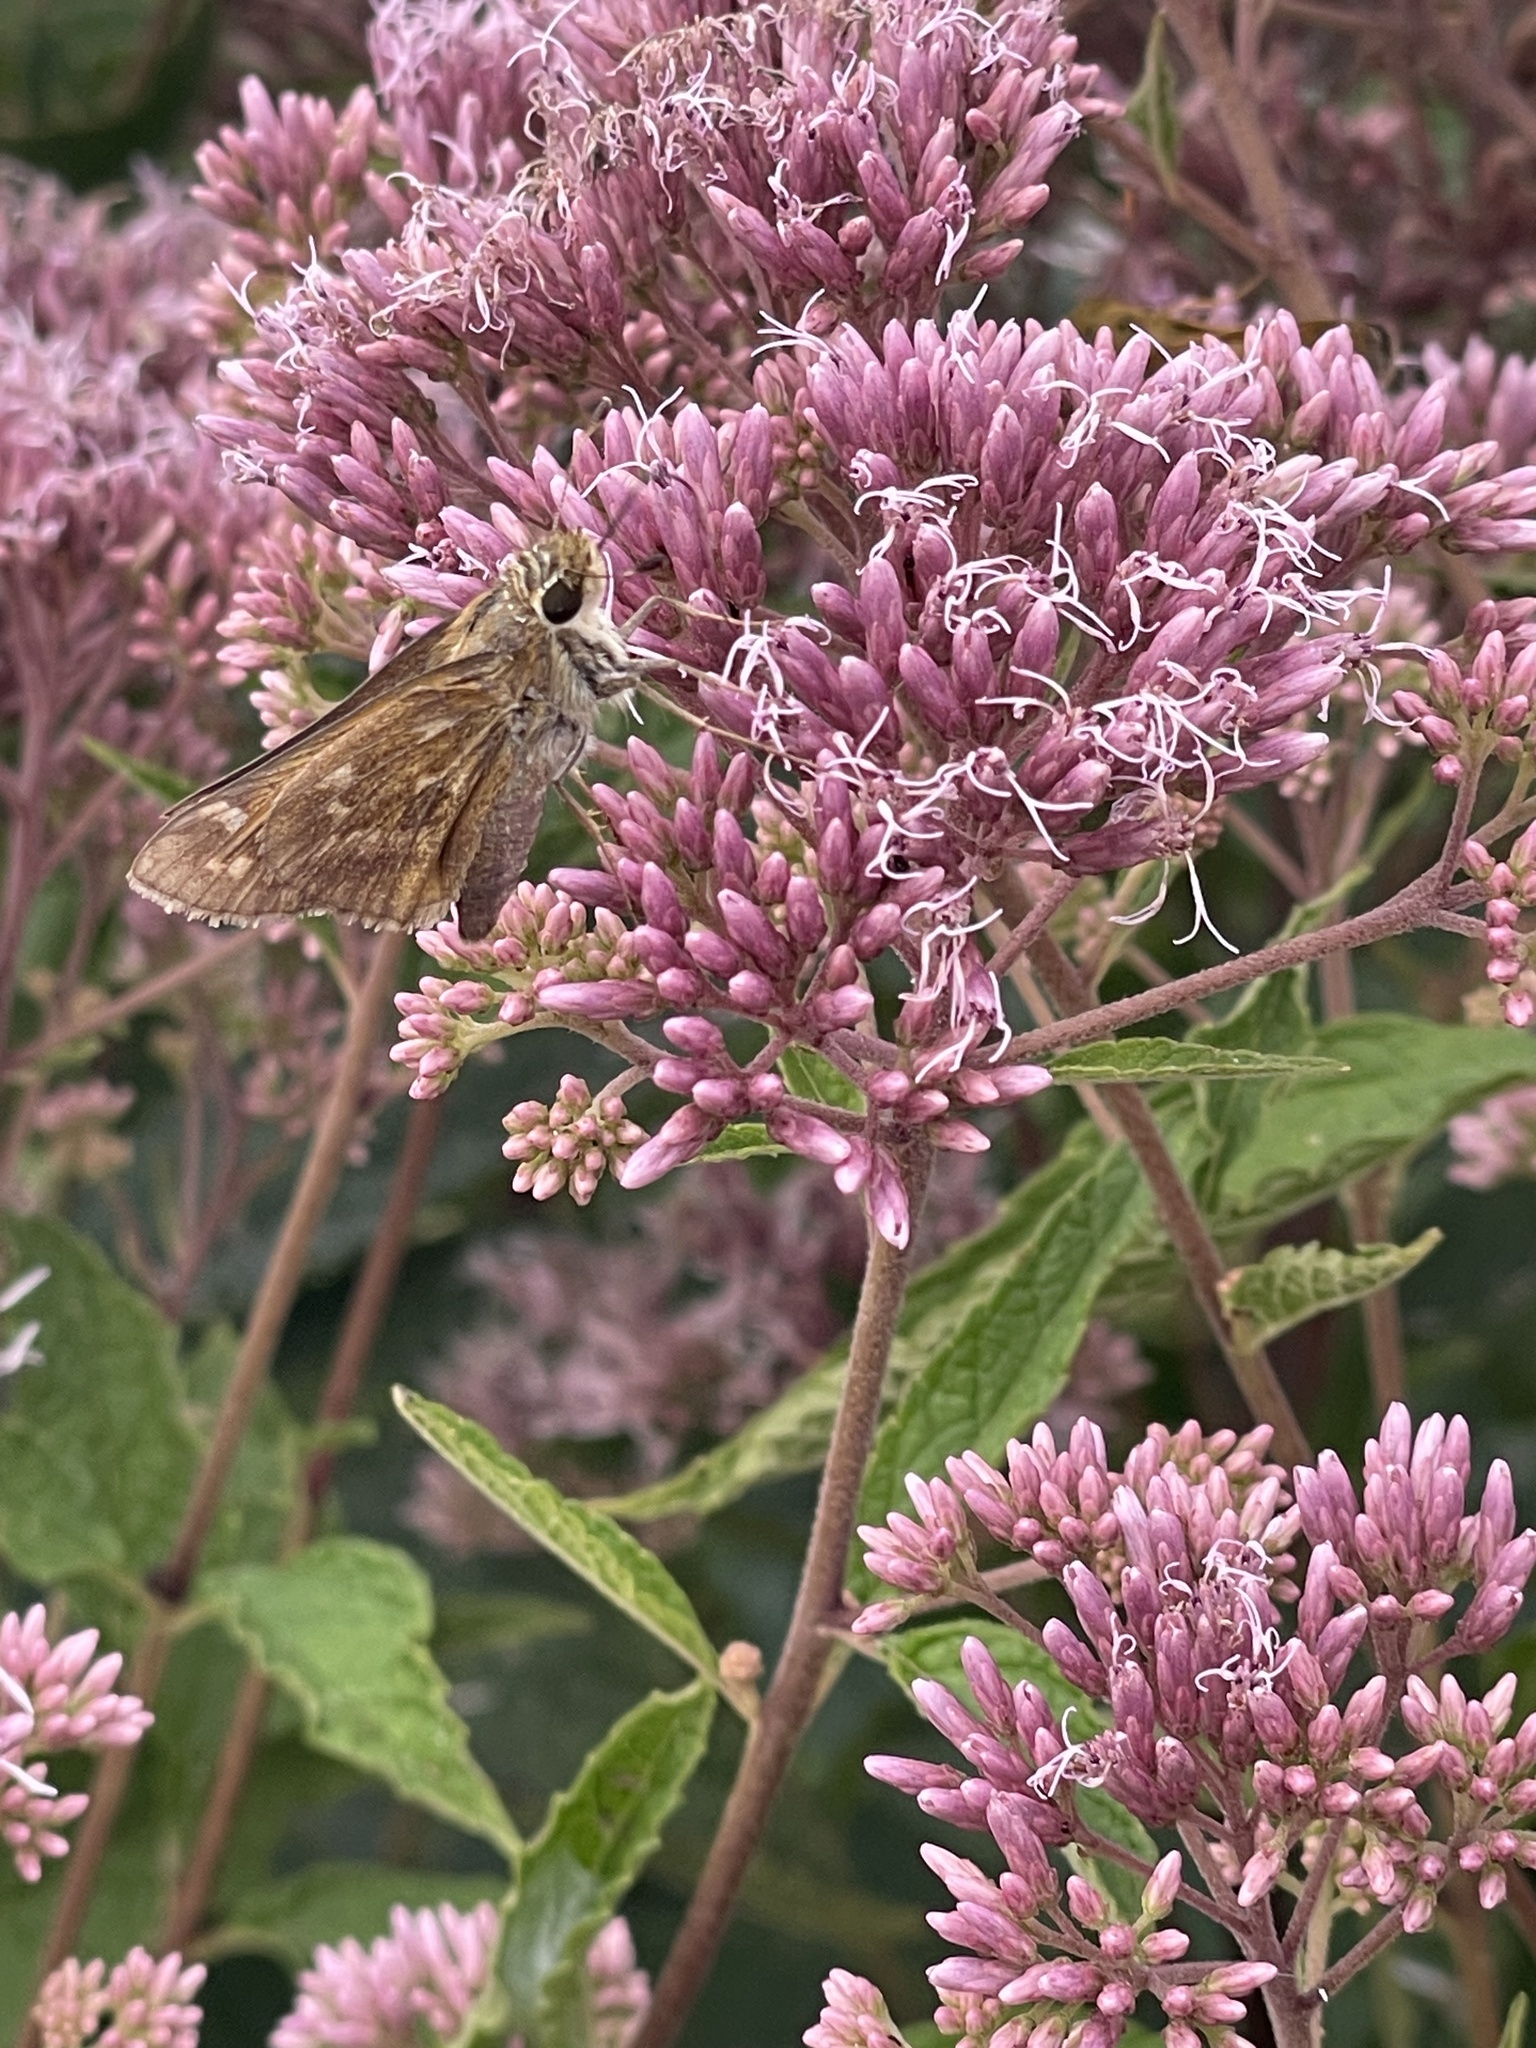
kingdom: Animalia
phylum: Arthropoda
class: Insecta
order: Lepidoptera
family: Hesperiidae
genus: Atalopedes
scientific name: Atalopedes
